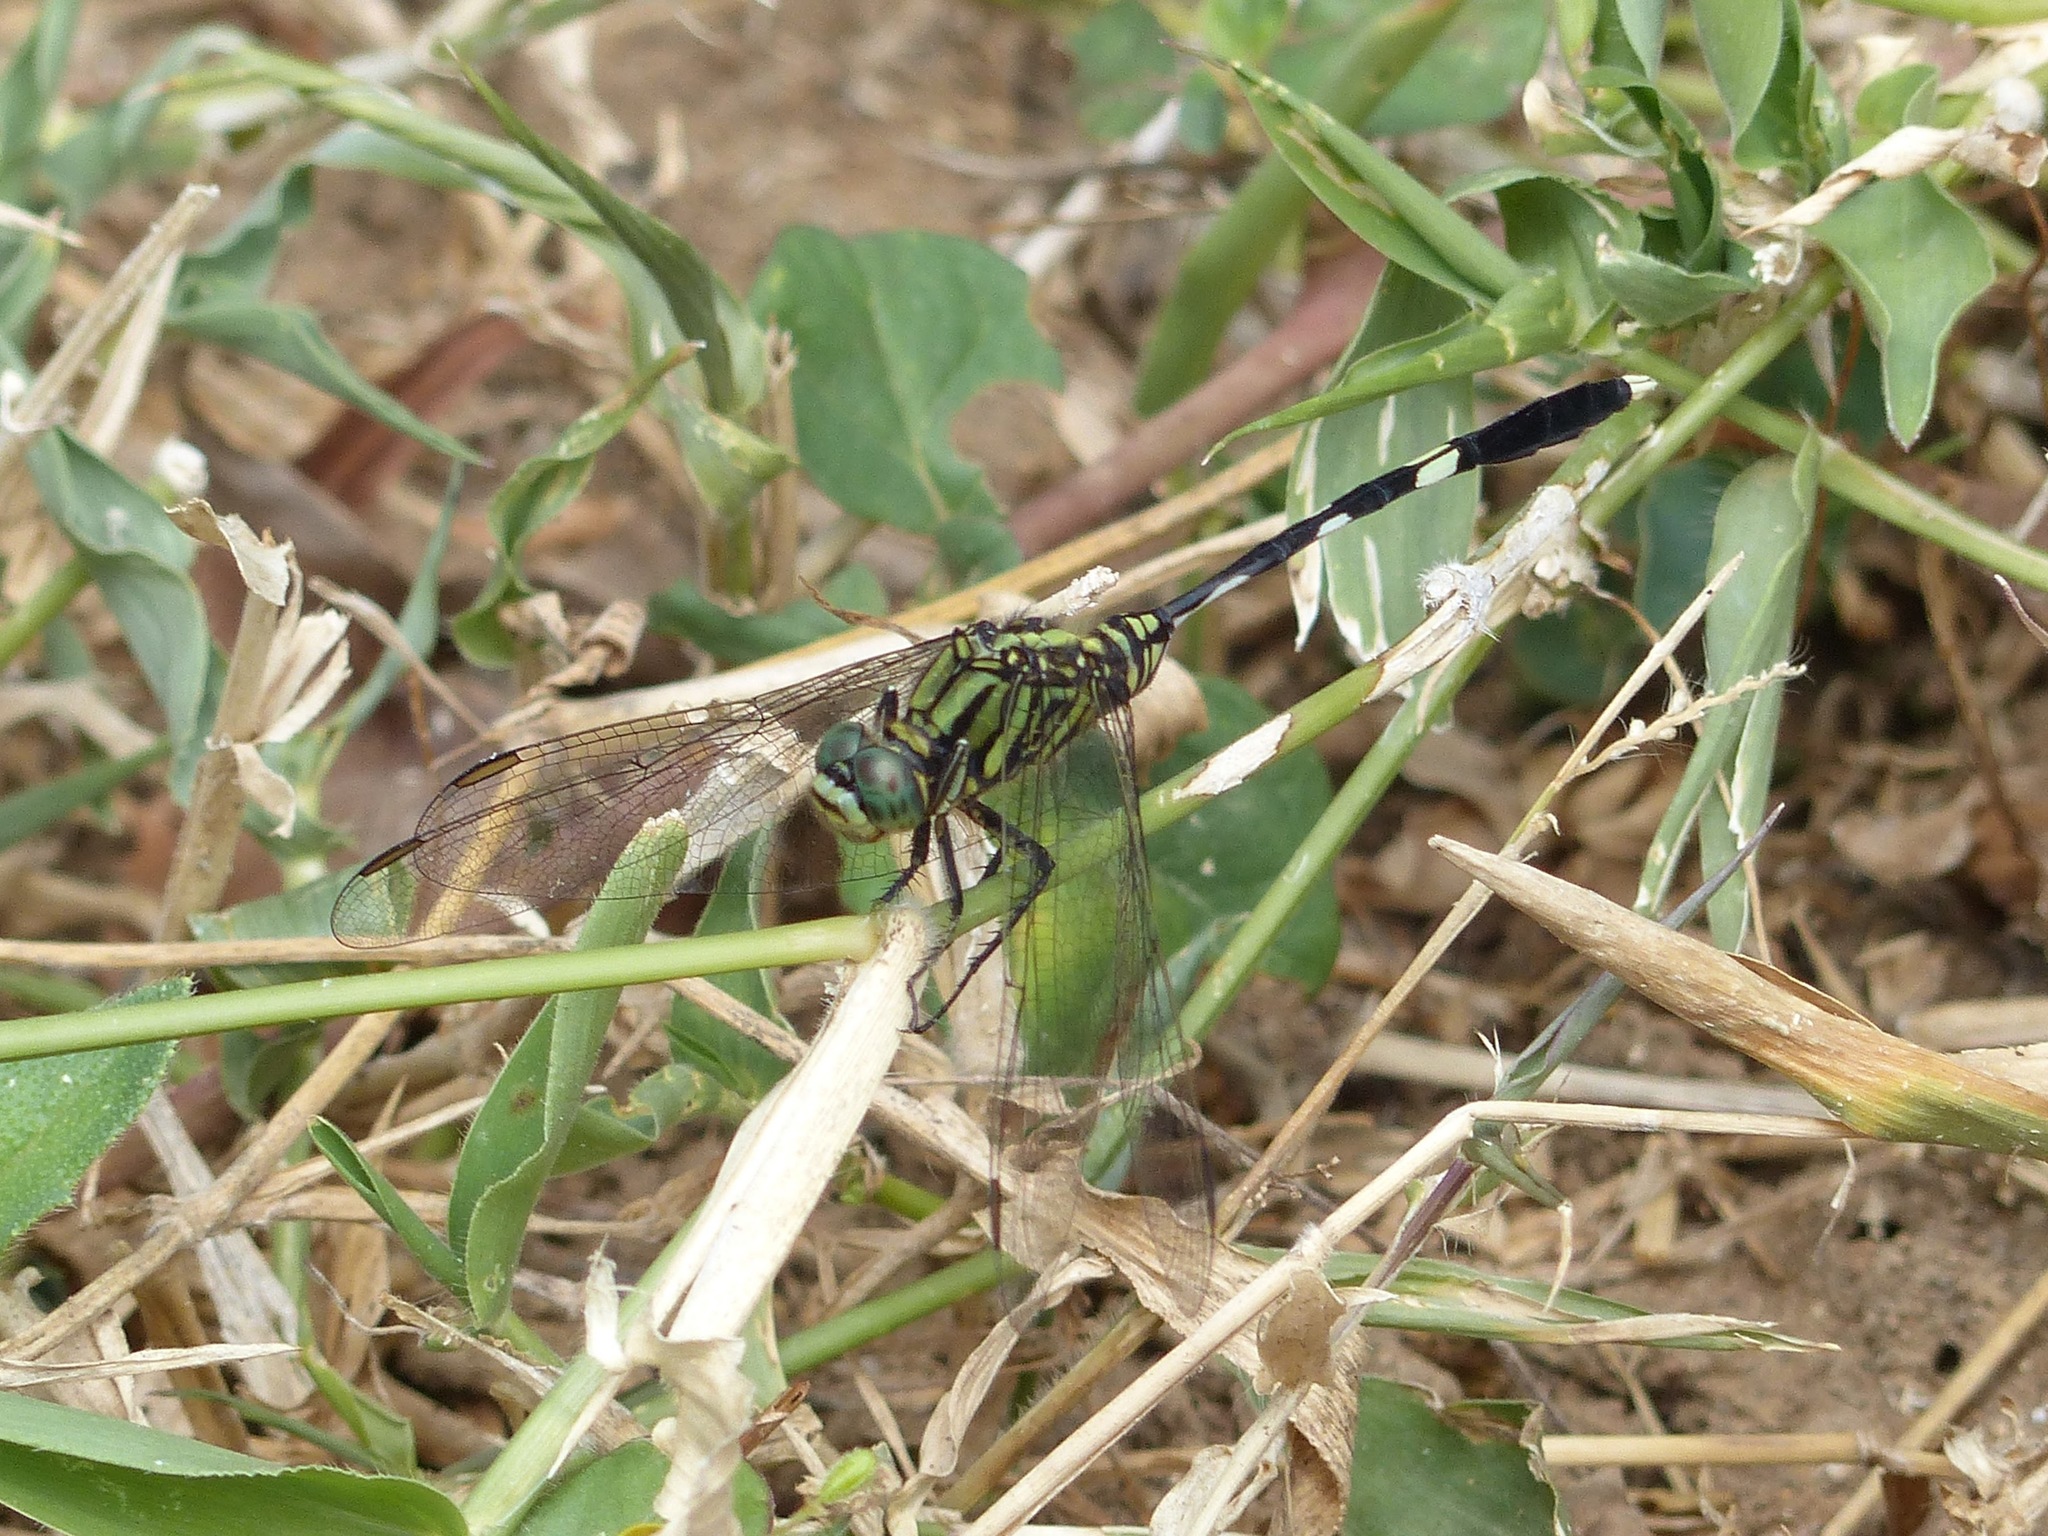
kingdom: Animalia
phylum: Arthropoda
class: Insecta
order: Odonata
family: Libellulidae
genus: Orthetrum
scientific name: Orthetrum sabina
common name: Slender skimmer
